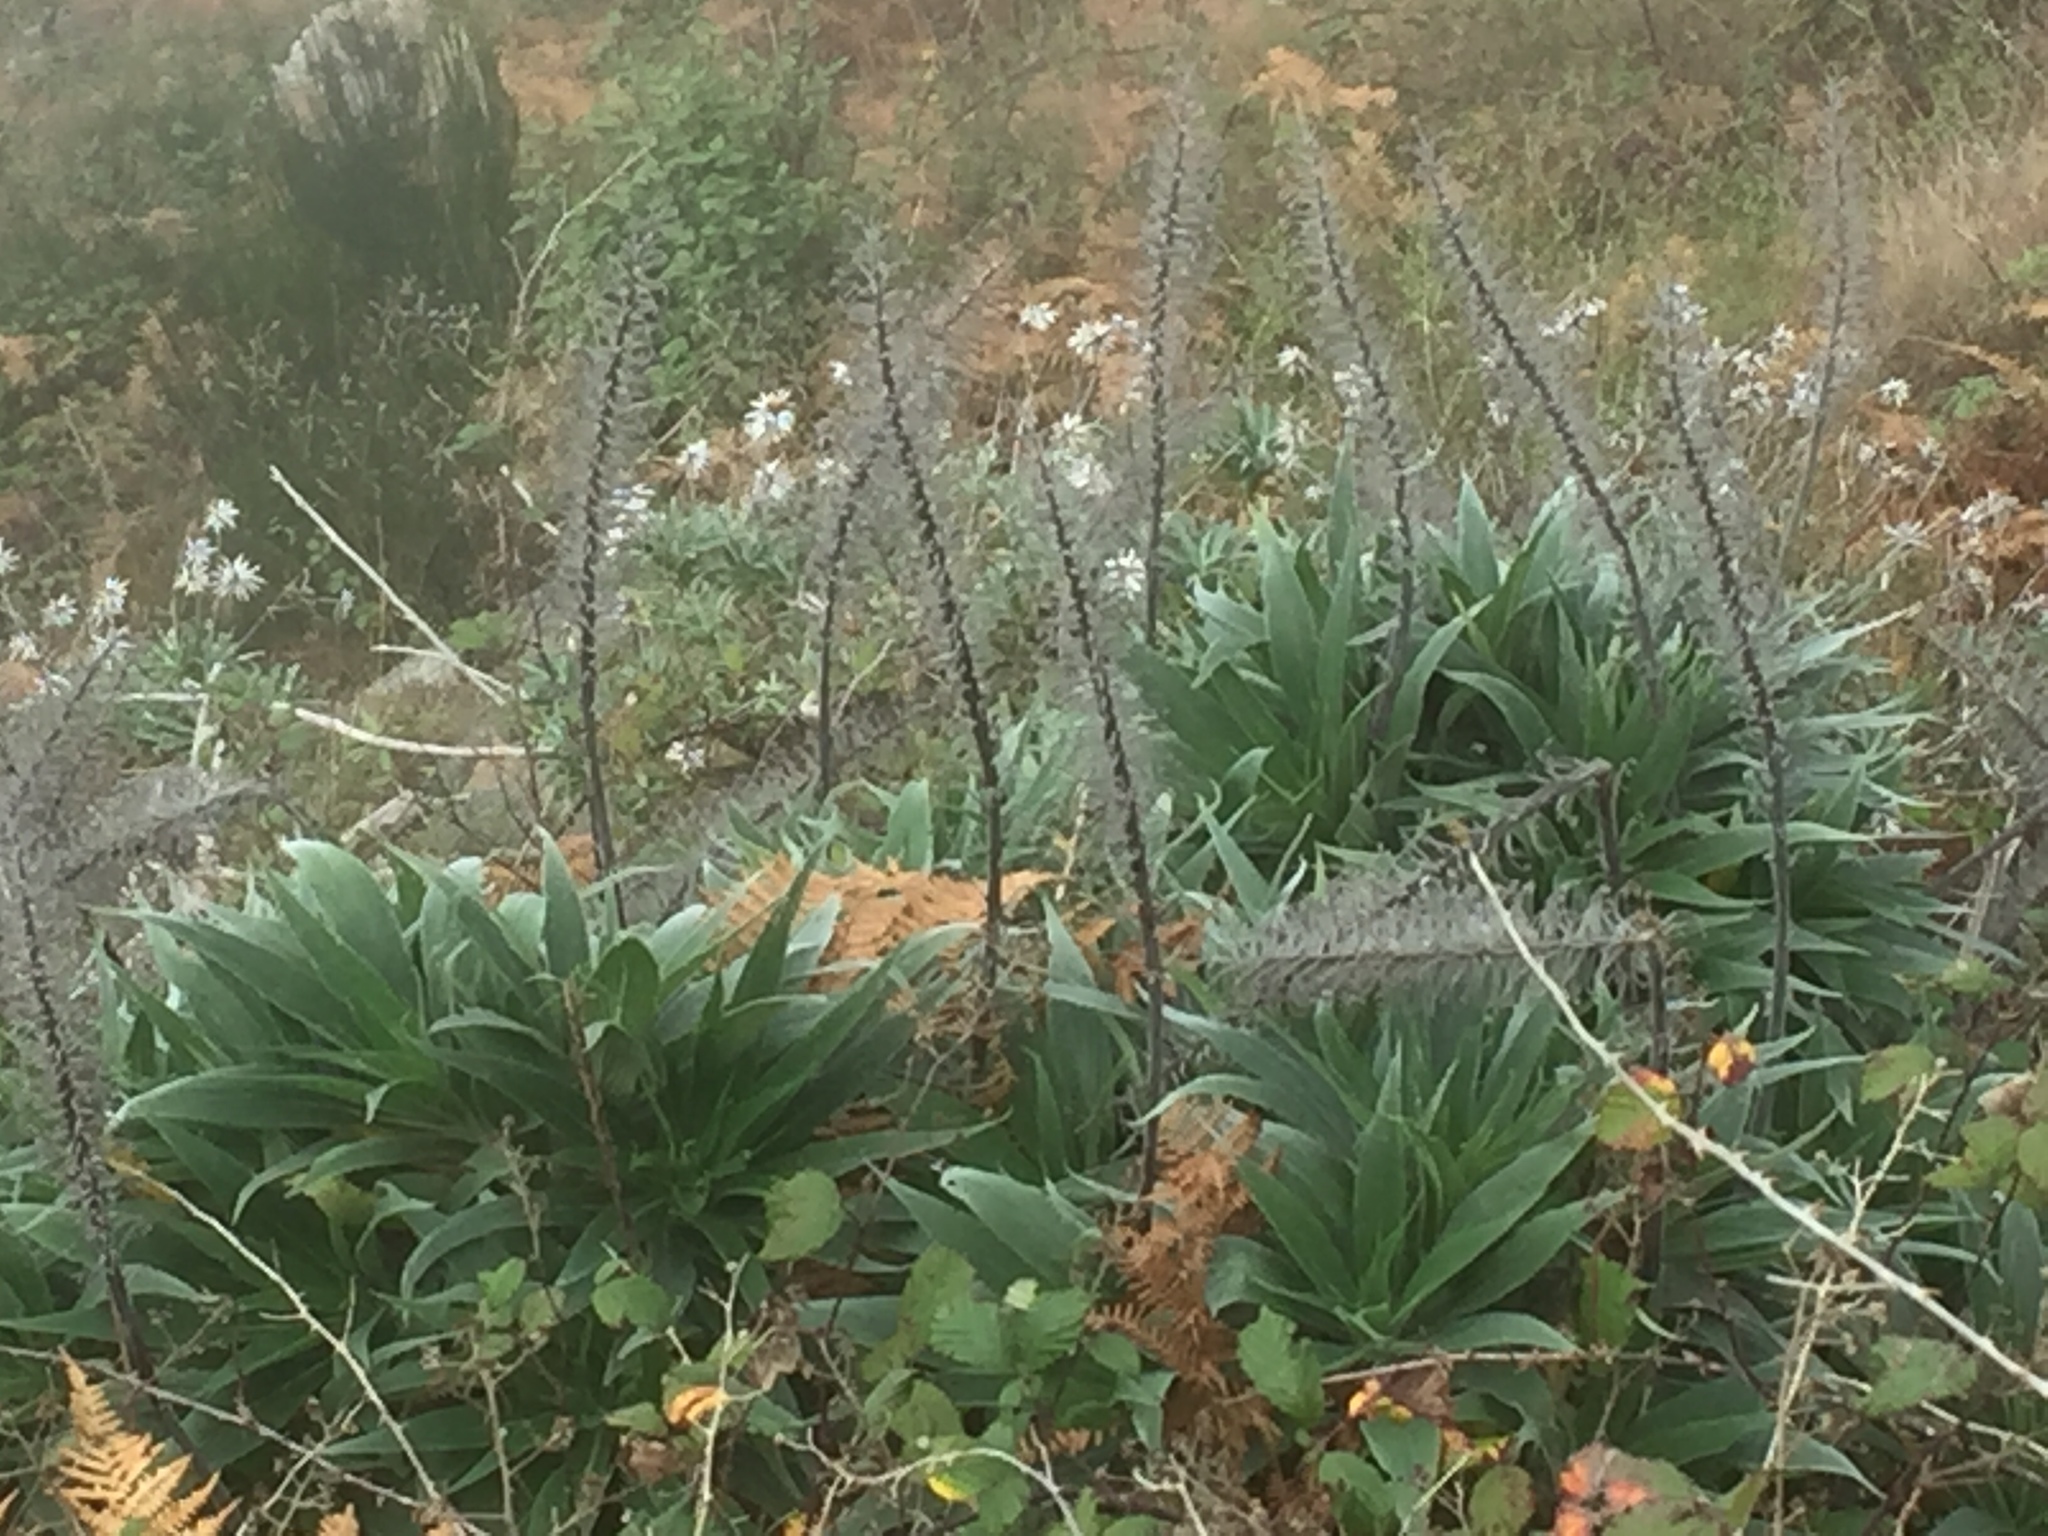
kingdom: Plantae
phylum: Tracheophyta
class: Magnoliopsida
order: Boraginales
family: Boraginaceae
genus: Echium
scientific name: Echium candicans
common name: Pride of madeira
